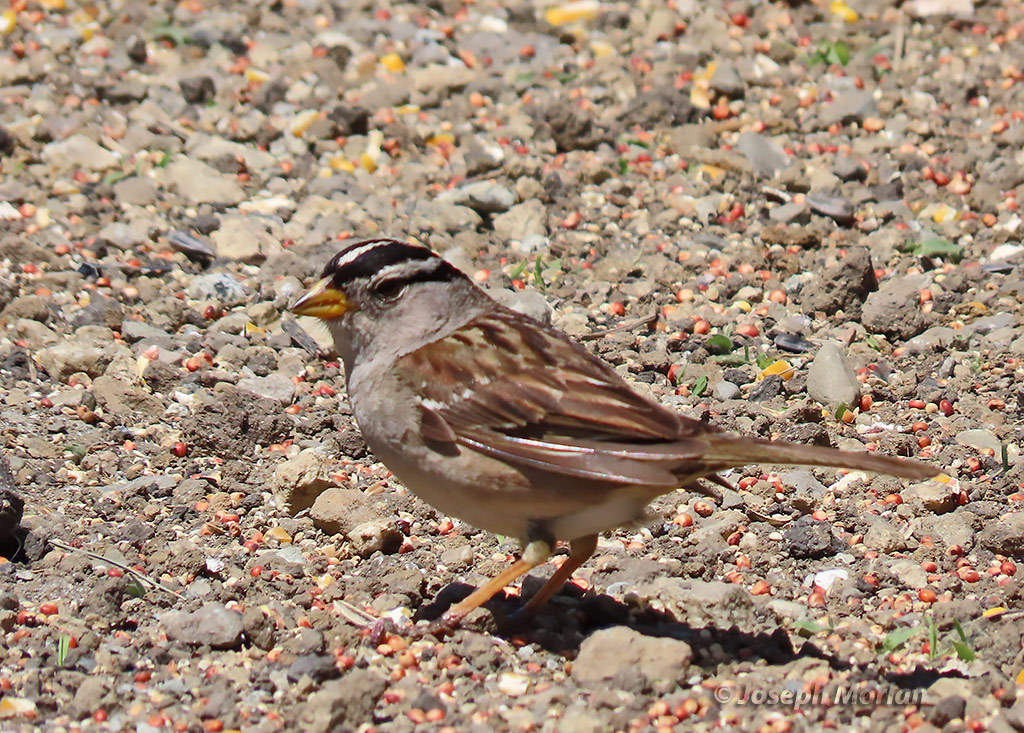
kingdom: Animalia
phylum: Chordata
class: Aves
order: Passeriformes
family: Passerellidae
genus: Zonotrichia
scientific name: Zonotrichia leucophrys
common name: White-crowned sparrow
